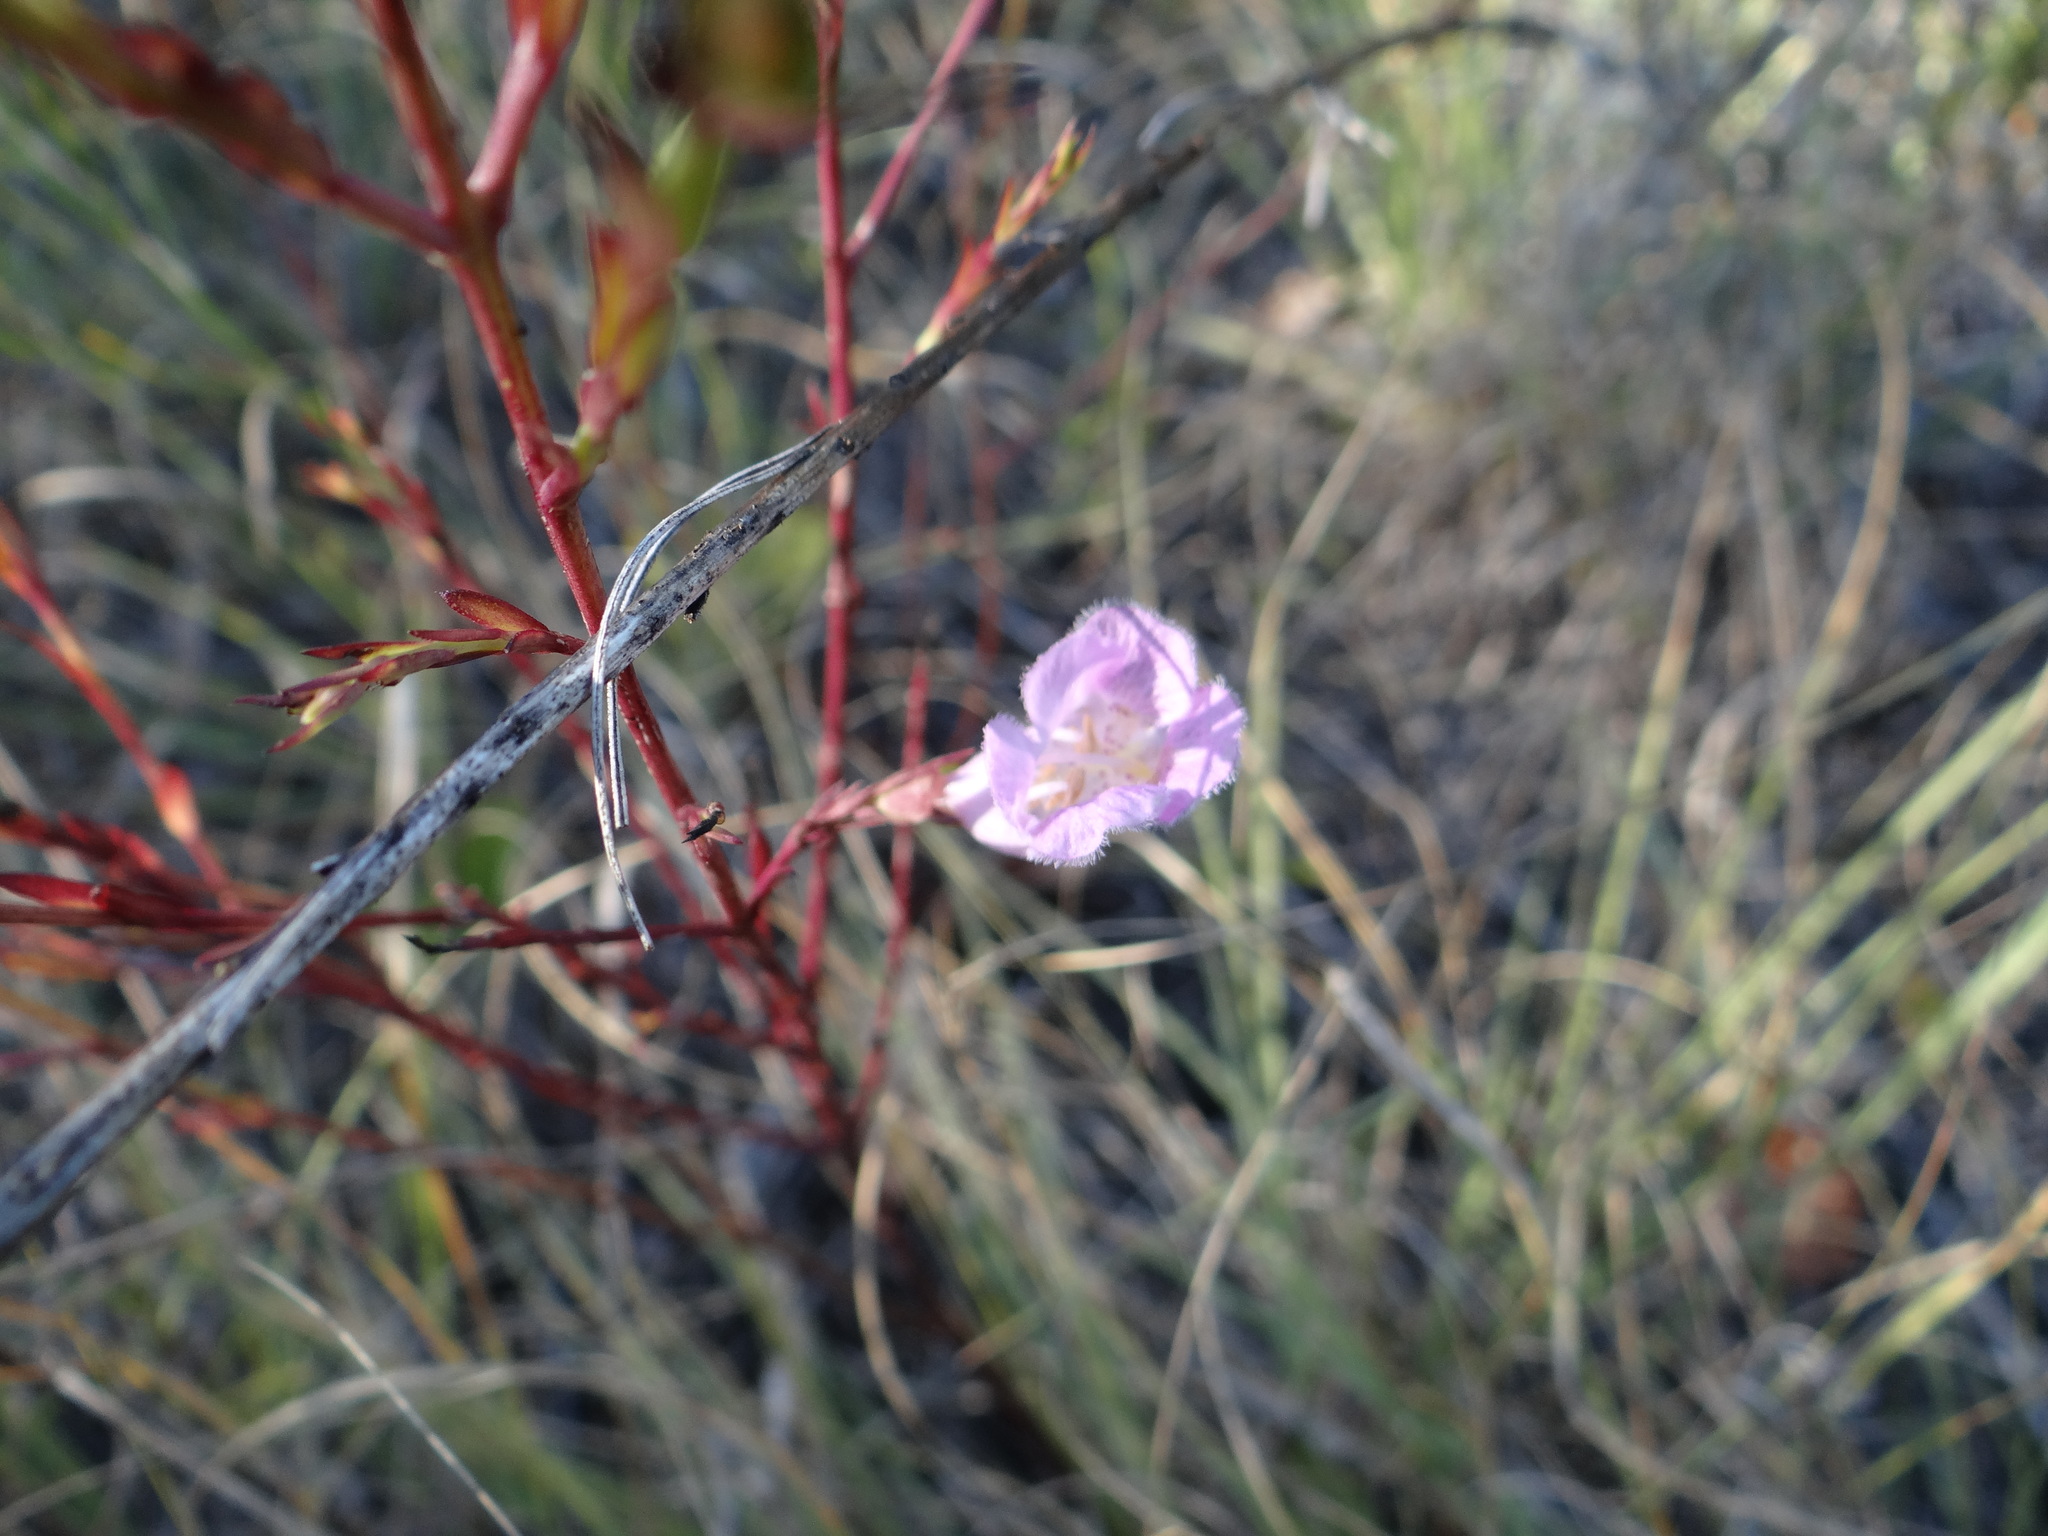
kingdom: Plantae
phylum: Tracheophyta
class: Magnoliopsida
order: Lamiales
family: Orobanchaceae
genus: Agalinis
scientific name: Agalinis heterophylla
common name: Prairie agalinis
